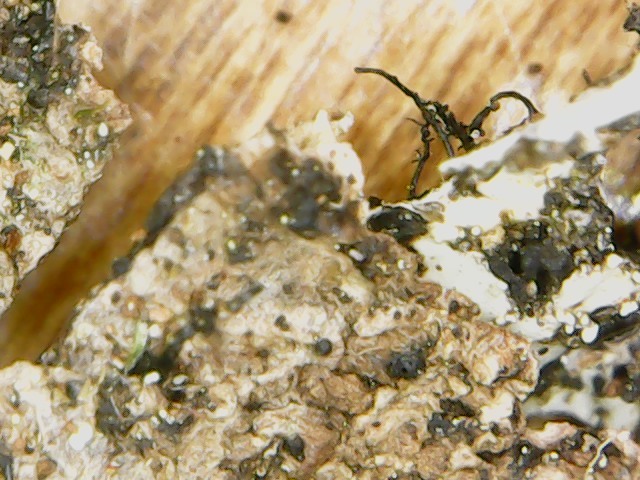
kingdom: Fungi
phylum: Ascomycota
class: Lecanoromycetes
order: Lecanorales
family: Parmeliaceae
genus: Parmelia
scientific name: Parmelia squarrosa
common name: Bottle brush shield lichen
